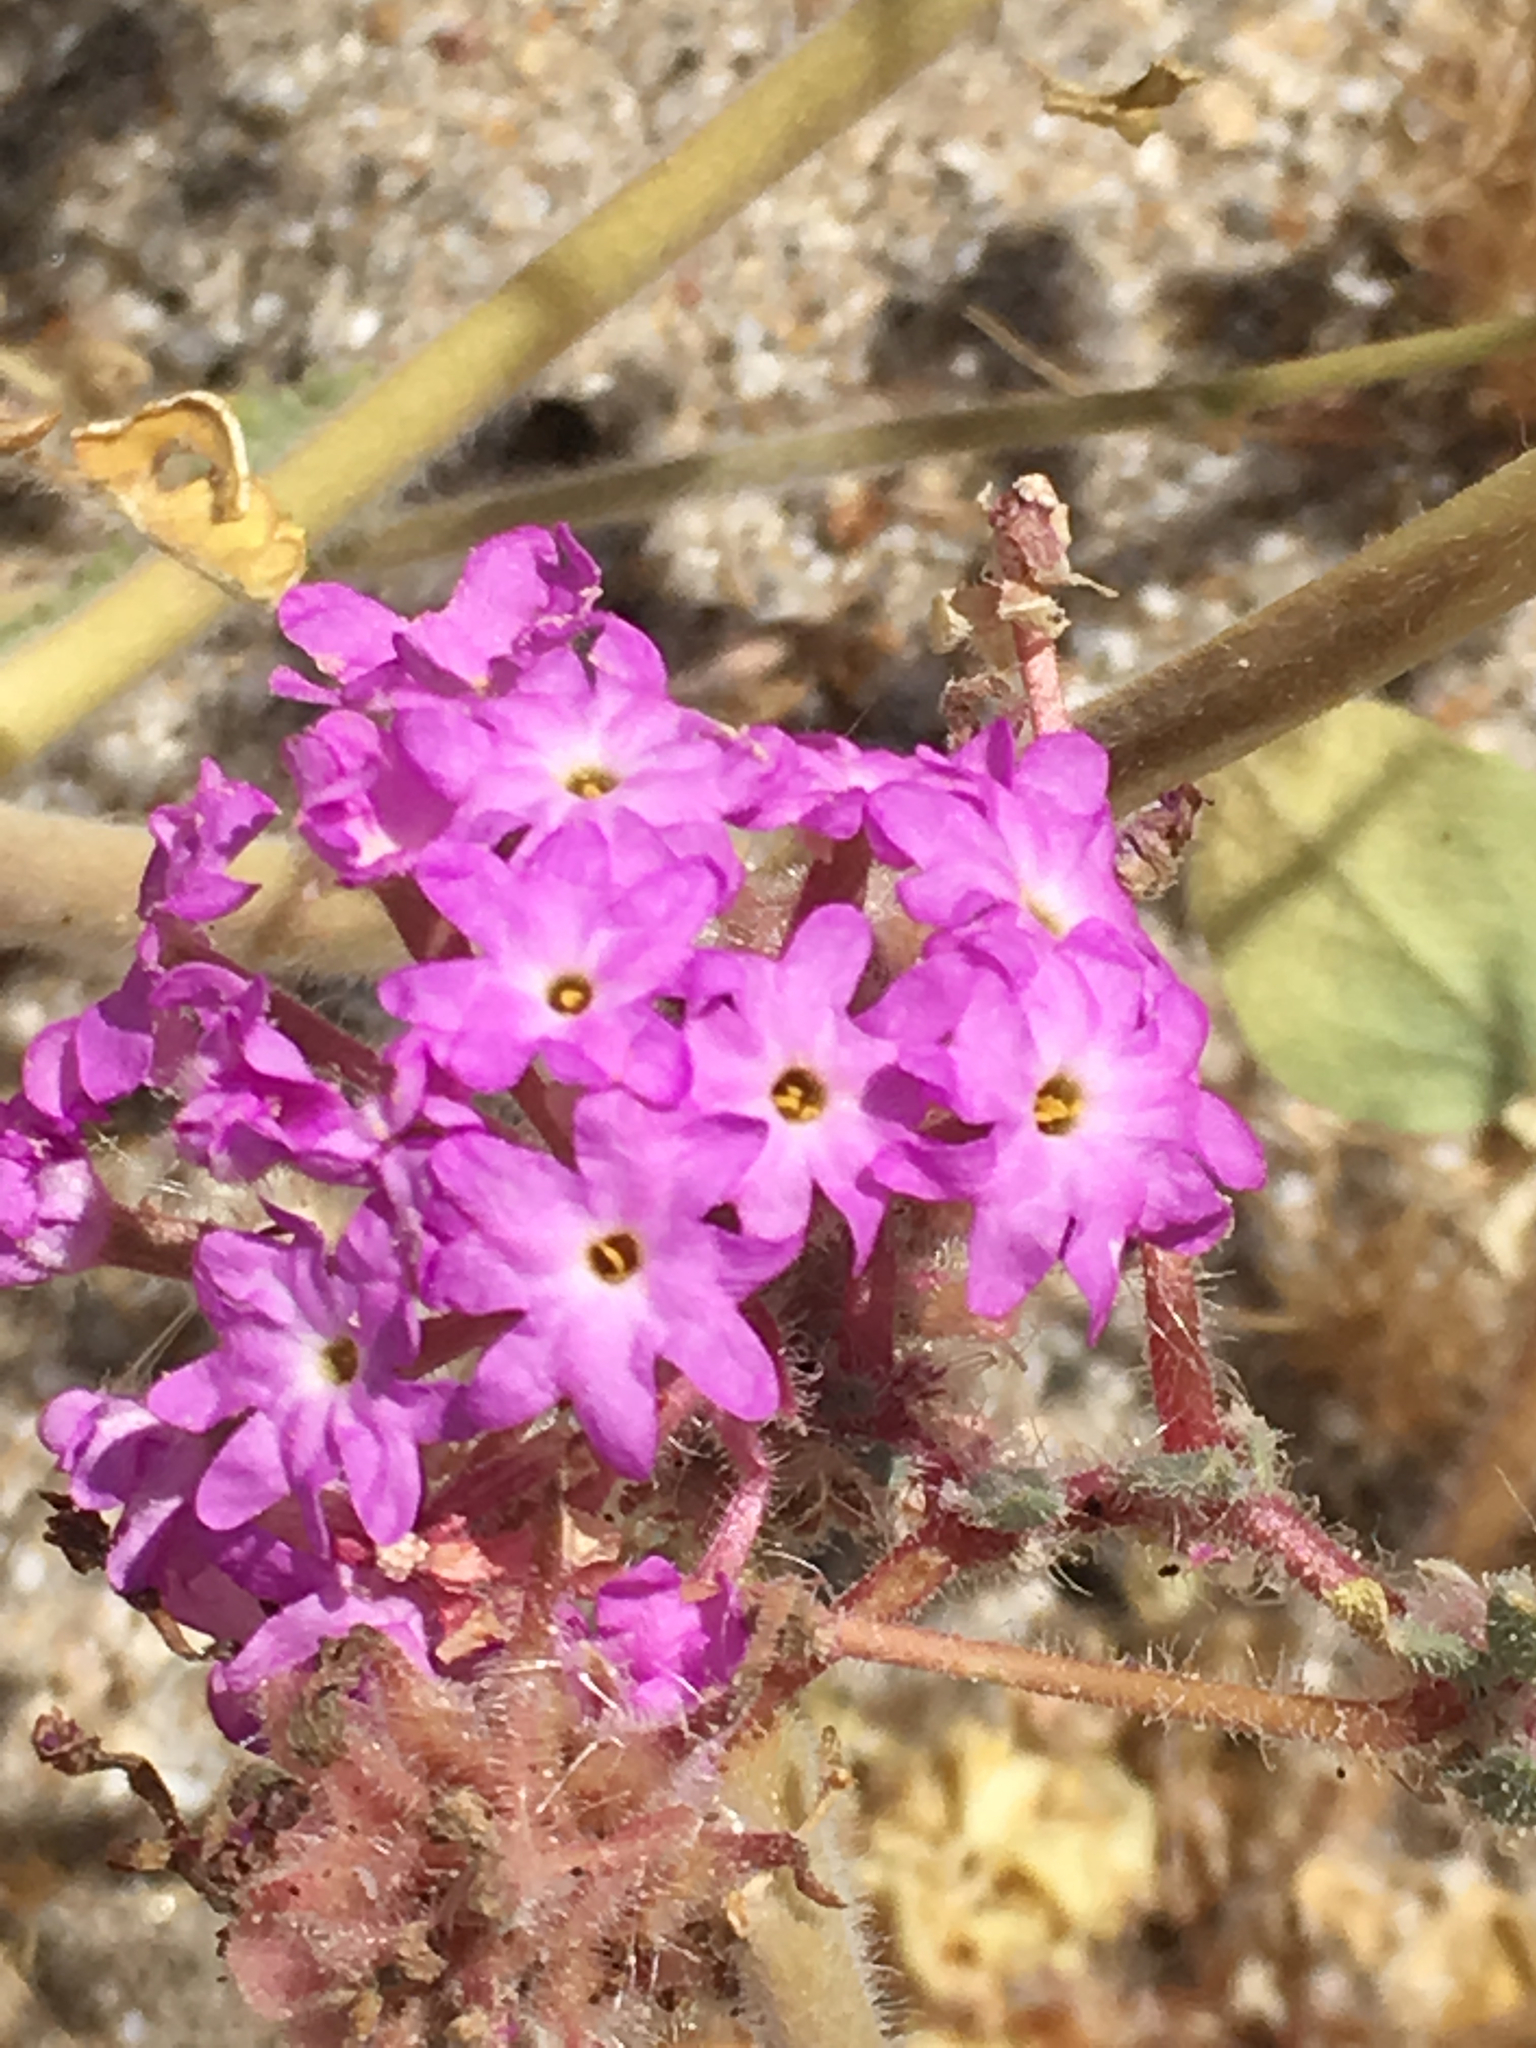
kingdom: Plantae
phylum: Tracheophyta
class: Magnoliopsida
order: Caryophyllales
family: Nyctaginaceae
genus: Abronia
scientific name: Abronia villosa
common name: Desert sand-verbena
